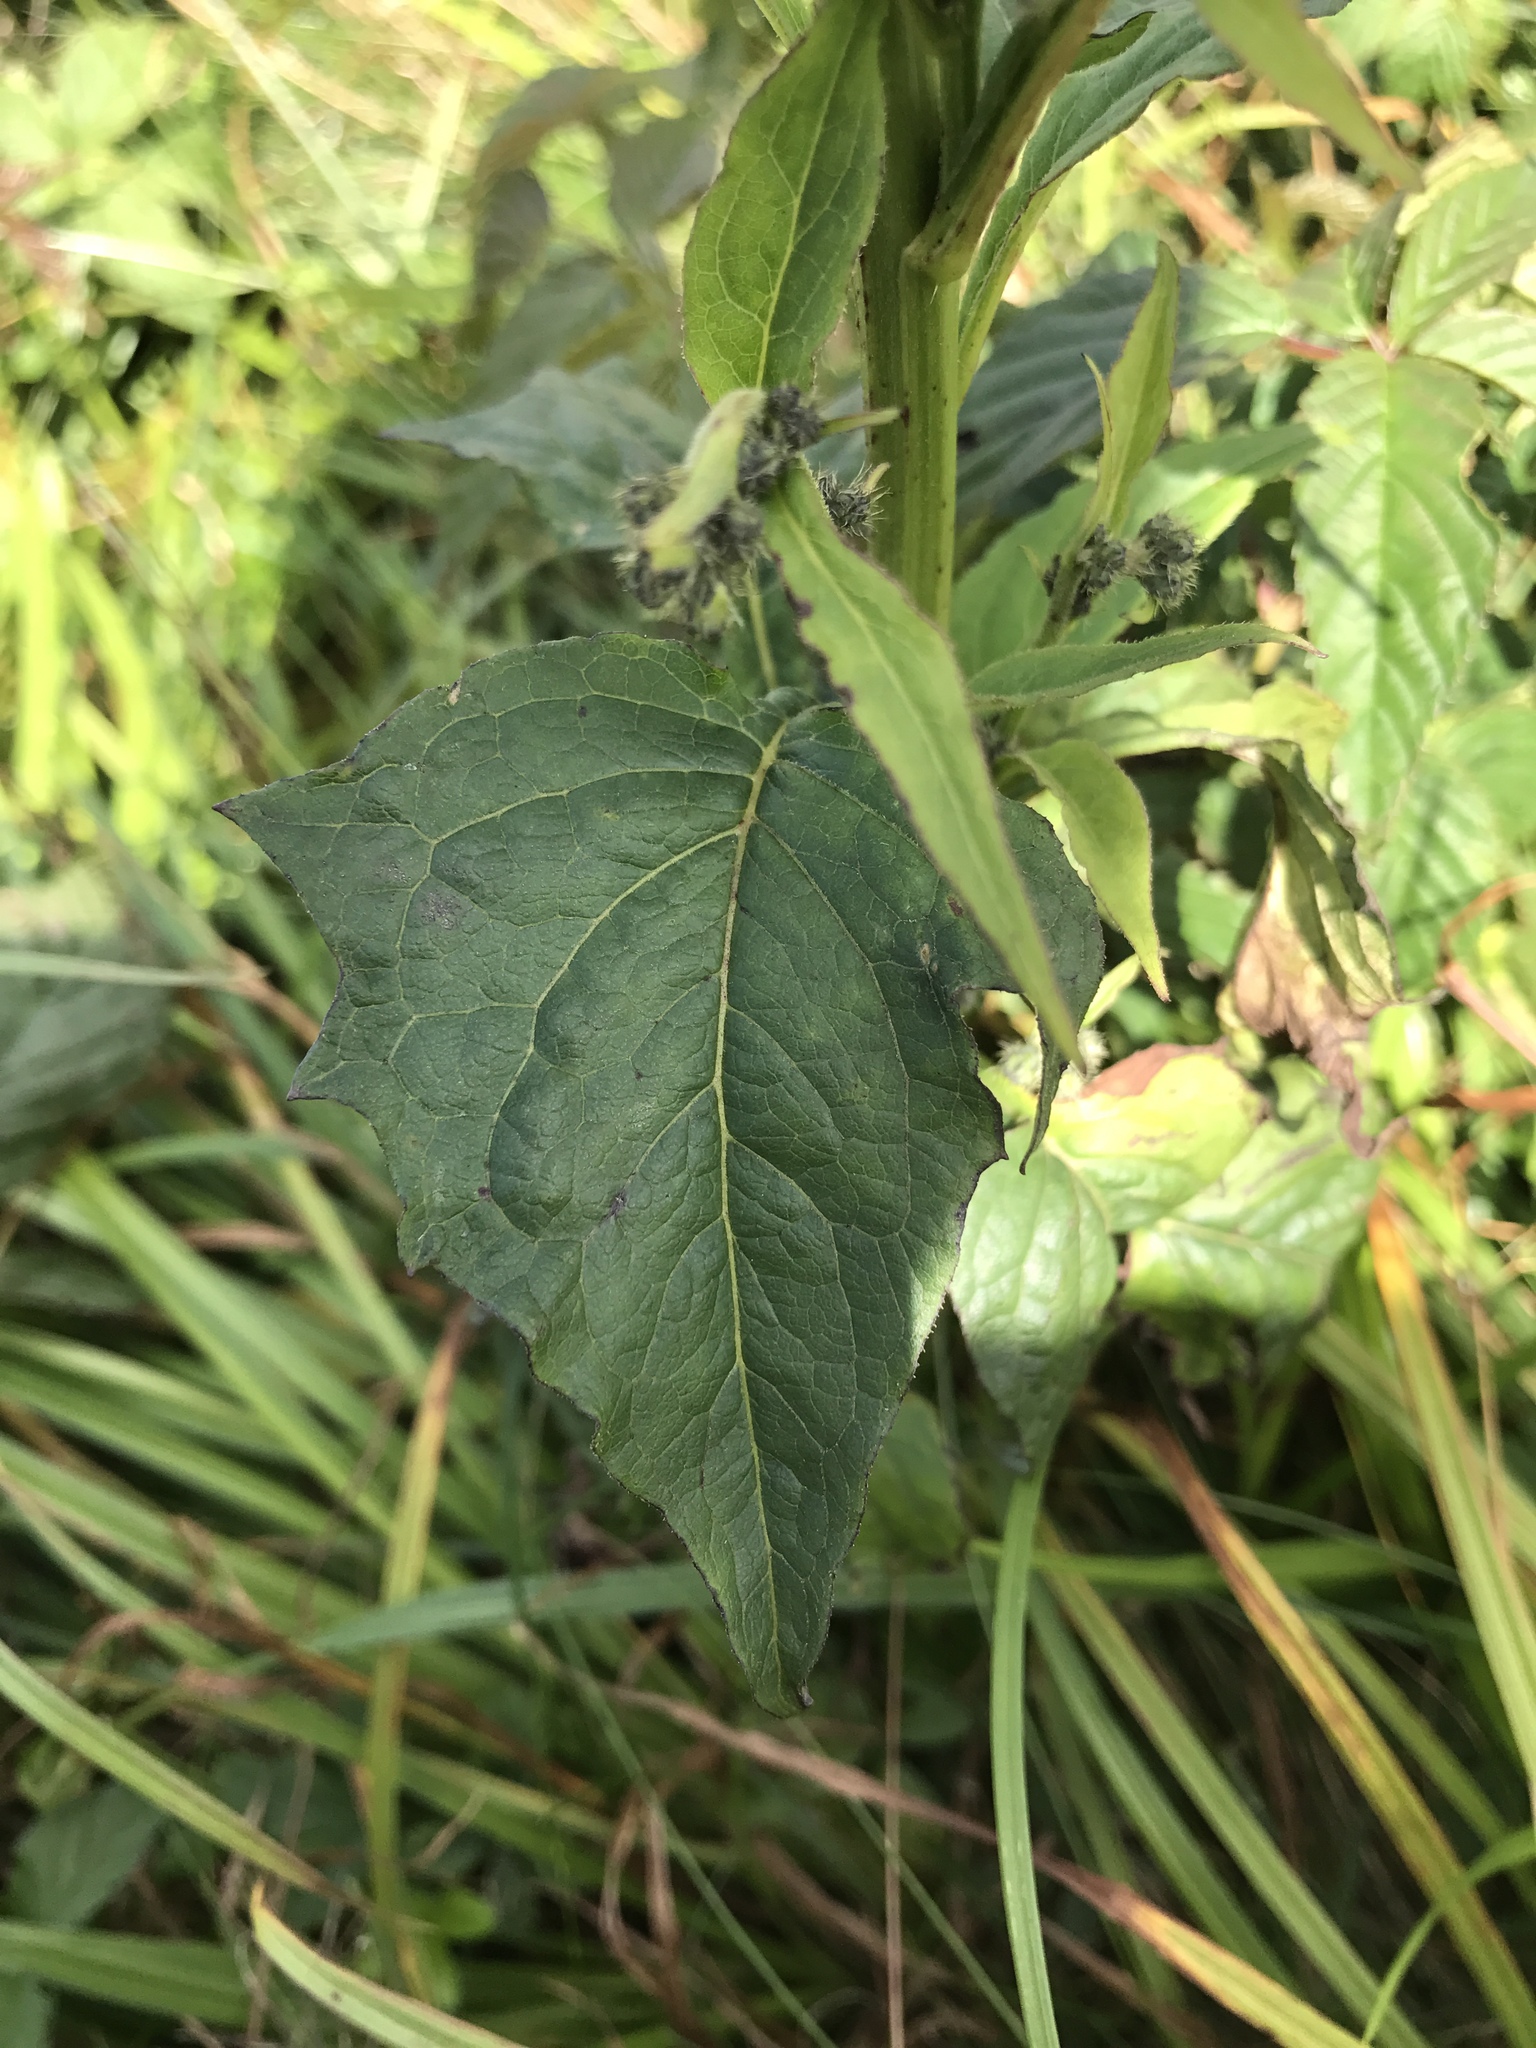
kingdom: Plantae
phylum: Tracheophyta
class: Magnoliopsida
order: Asterales
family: Asteraceae
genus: Nabalus
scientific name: Nabalus roanensis
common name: Roan mountain rattlesnakeroot
